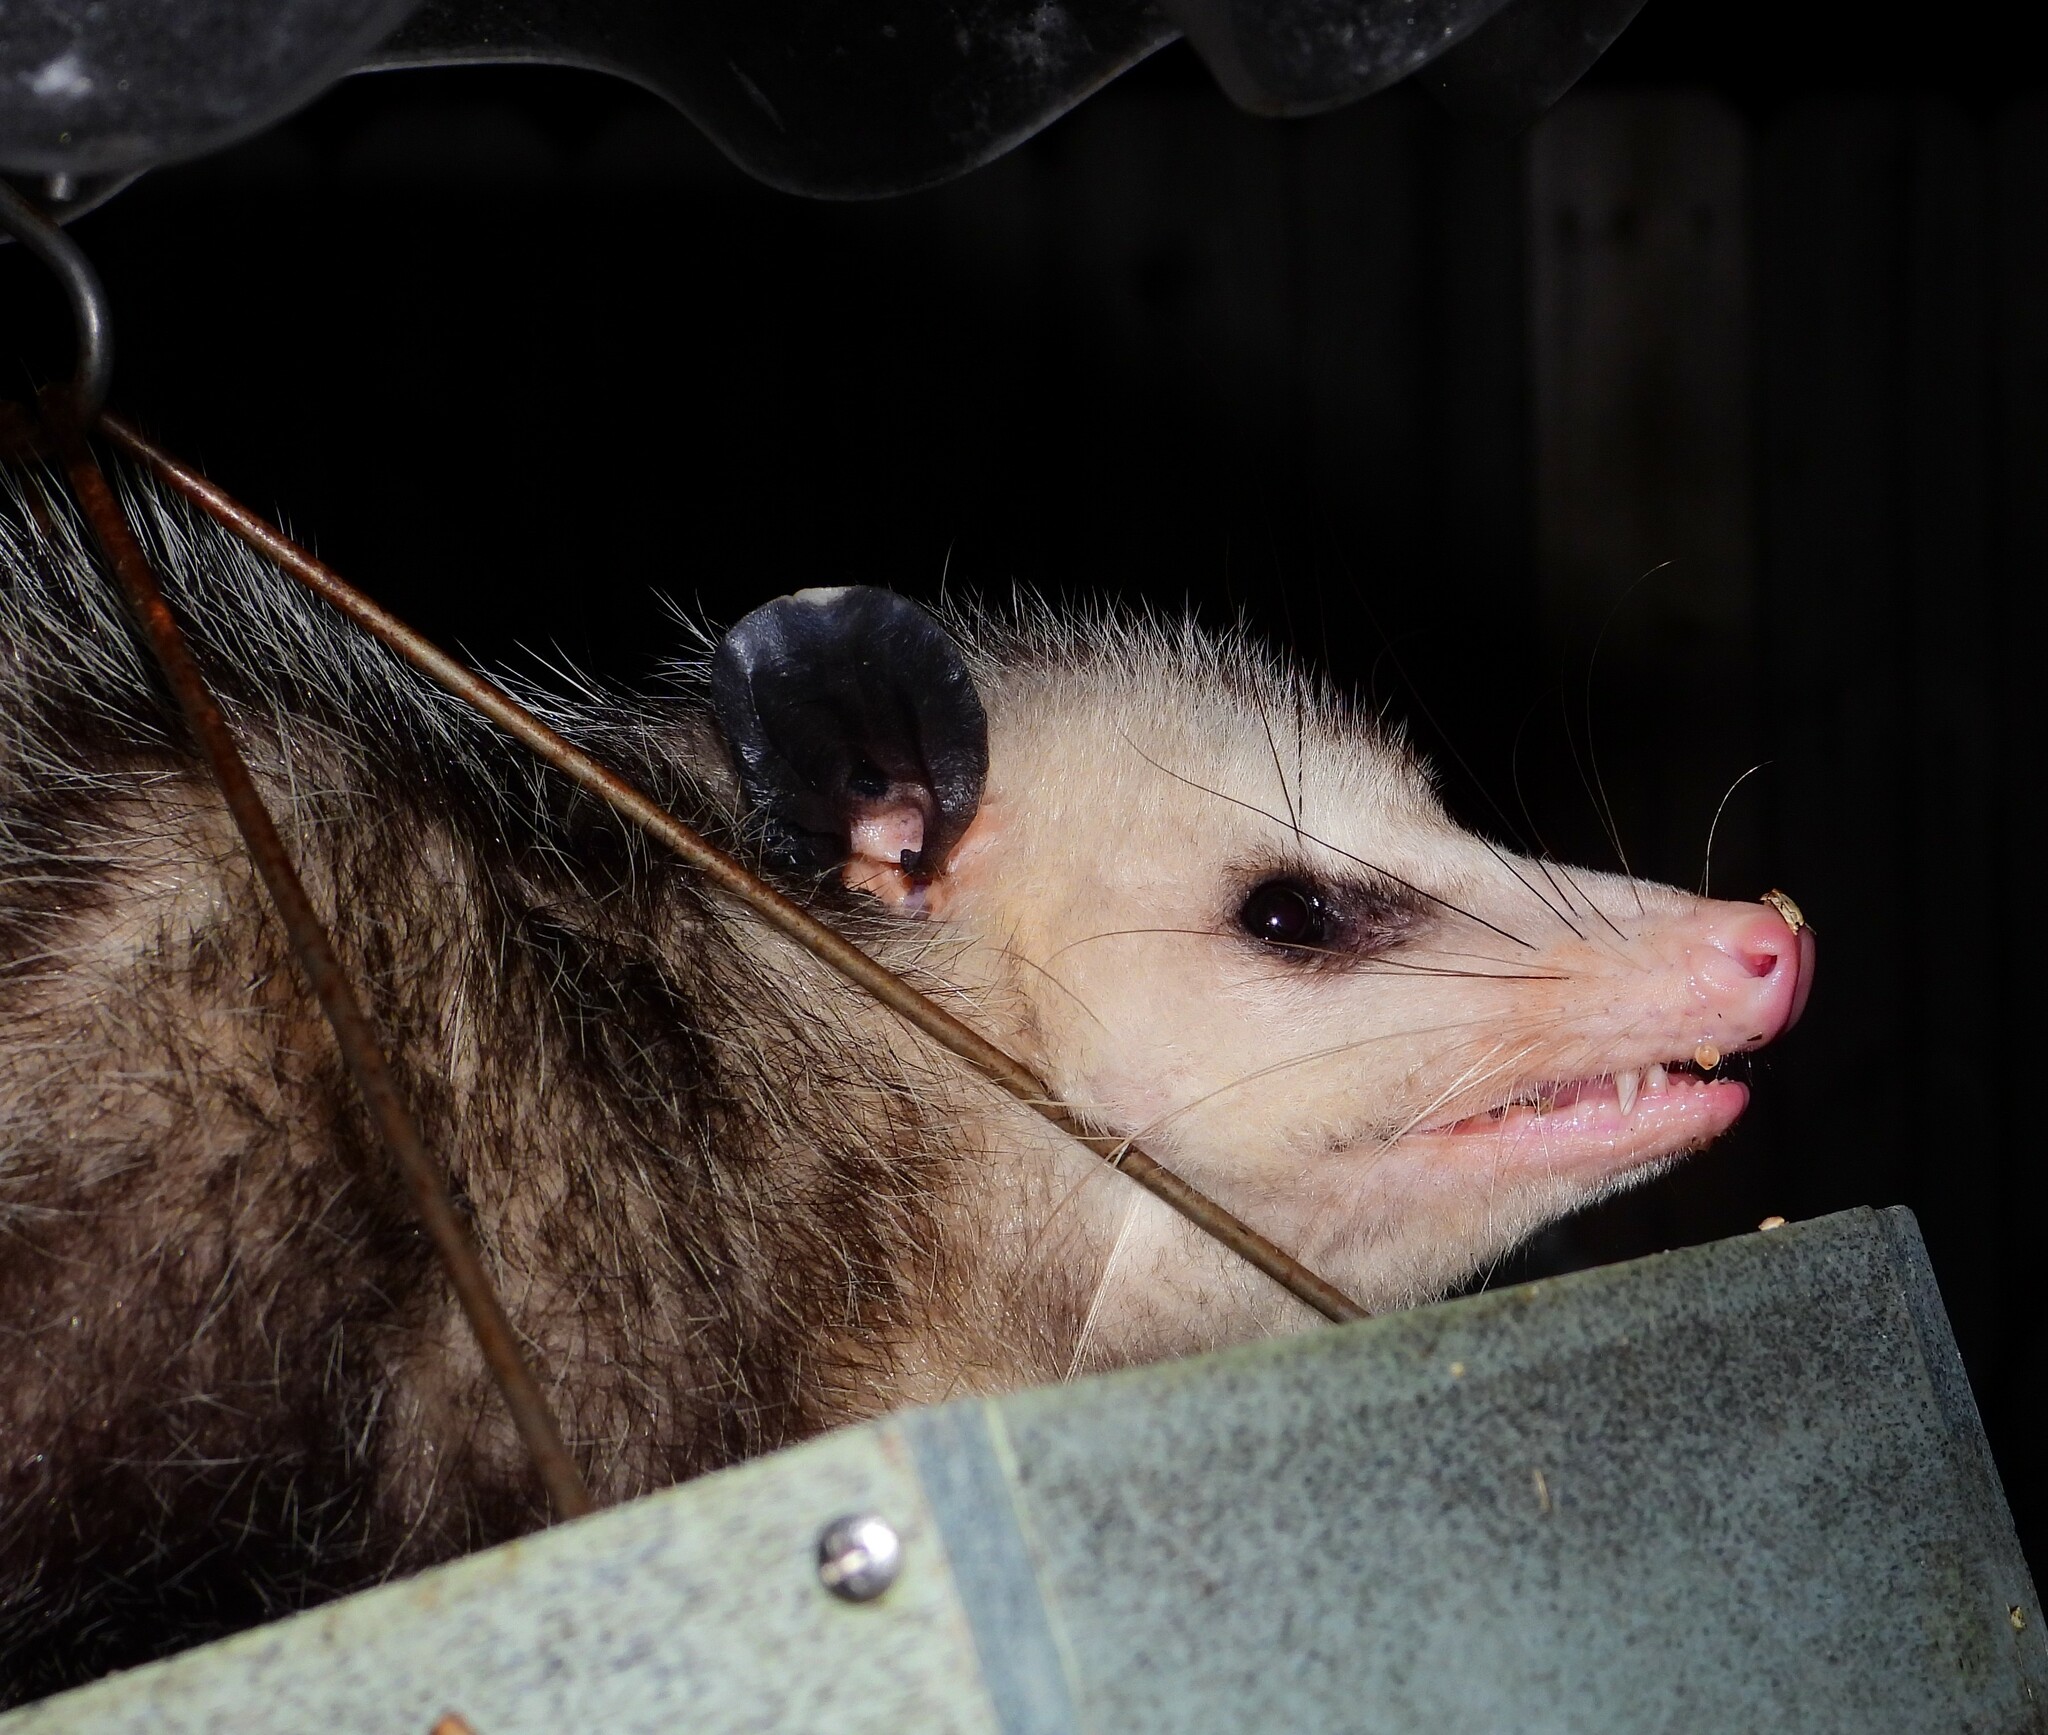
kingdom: Animalia
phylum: Chordata
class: Mammalia
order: Didelphimorphia
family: Didelphidae
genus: Didelphis
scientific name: Didelphis virginiana
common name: Virginia opossum
